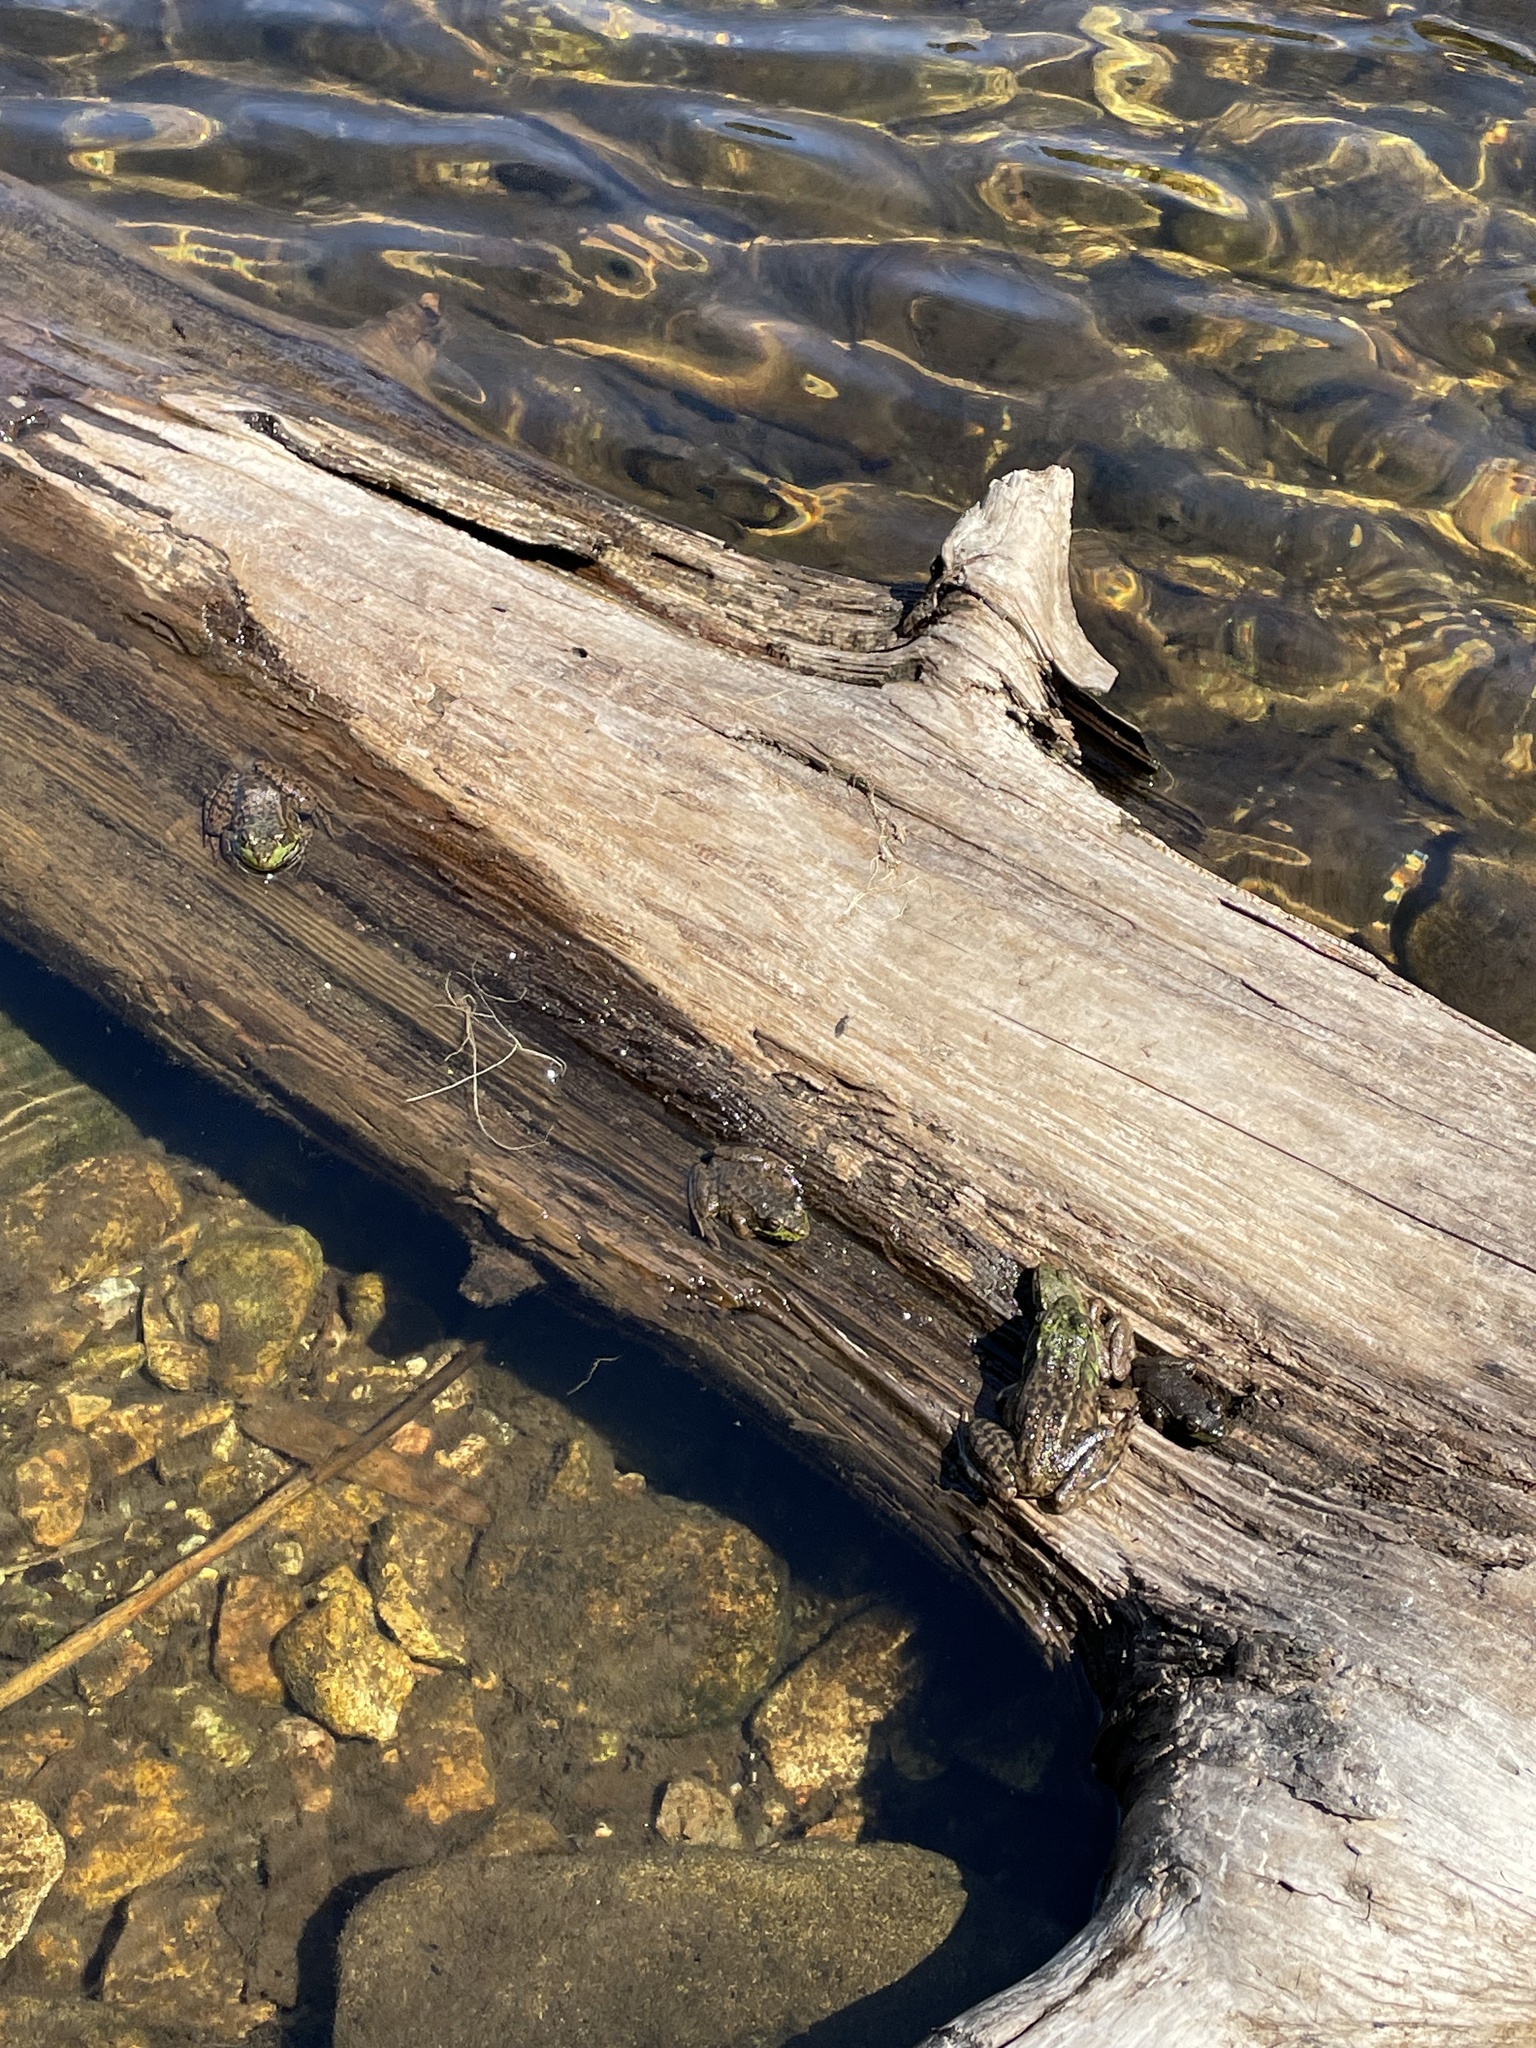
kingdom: Animalia
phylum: Chordata
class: Amphibia
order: Anura
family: Ranidae
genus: Lithobates
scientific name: Lithobates clamitans
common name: Green frog
